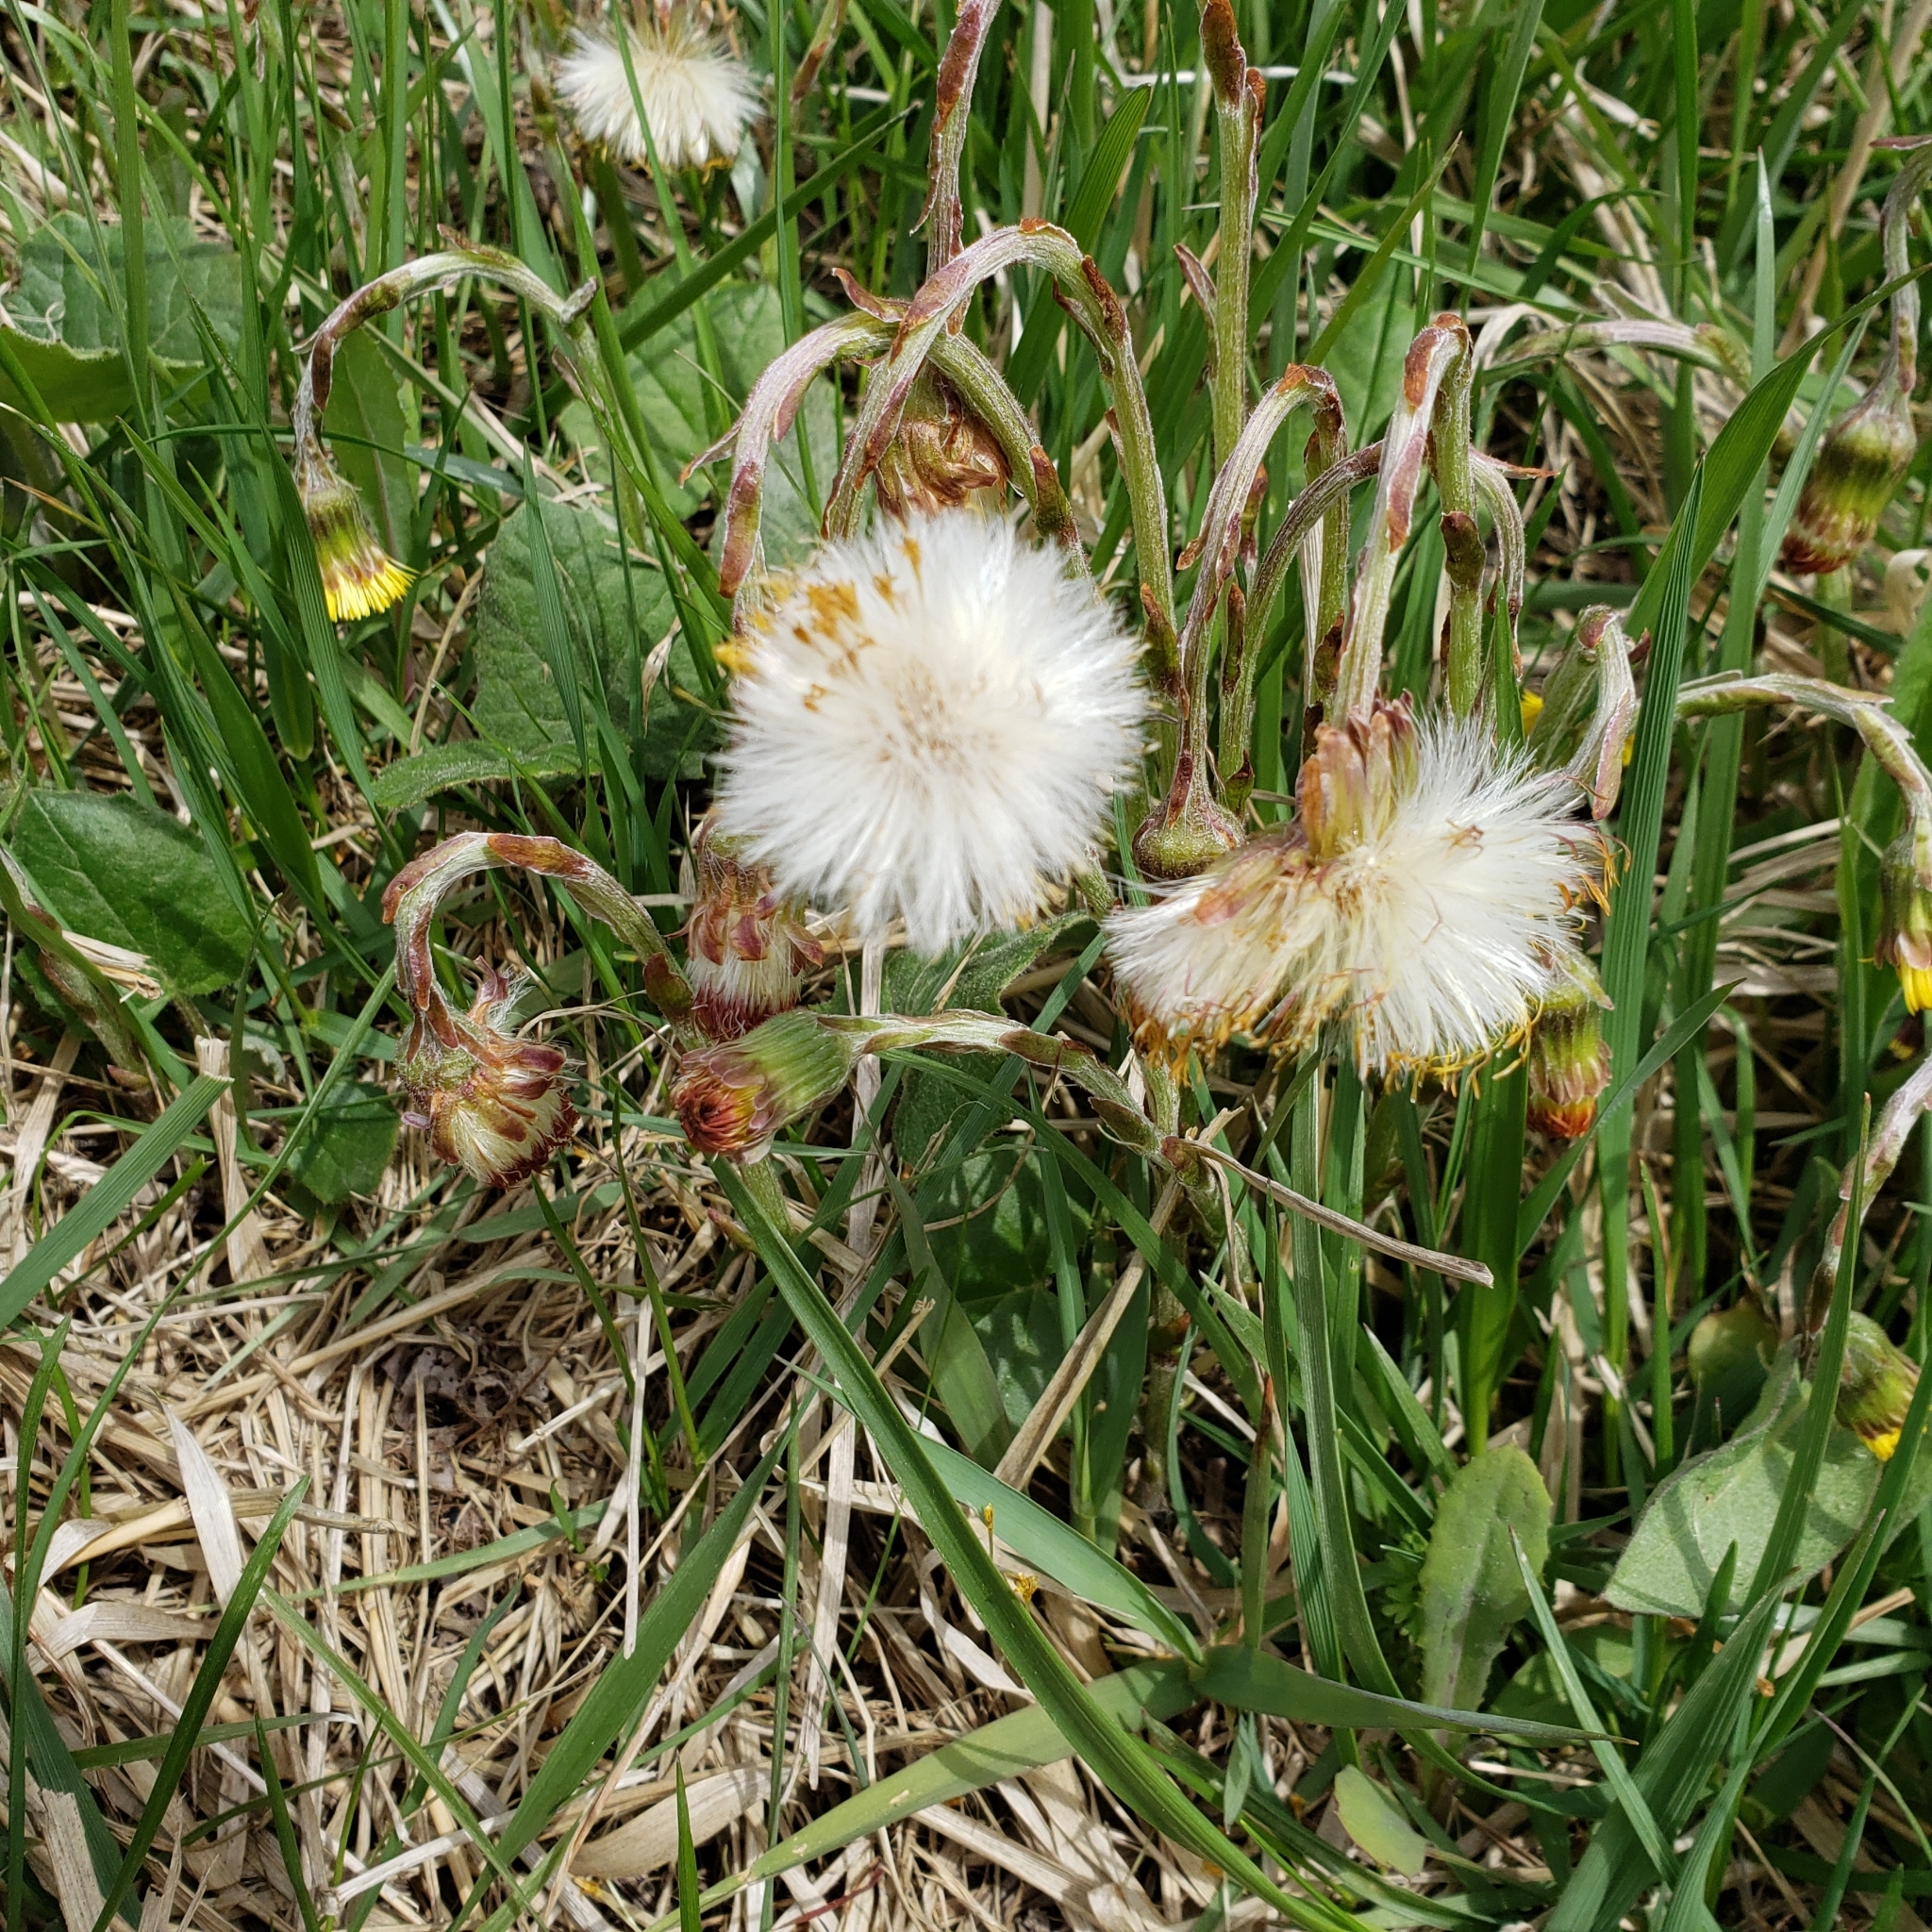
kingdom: Plantae
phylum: Tracheophyta
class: Magnoliopsida
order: Asterales
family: Asteraceae
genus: Tussilago
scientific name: Tussilago farfara
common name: Coltsfoot
